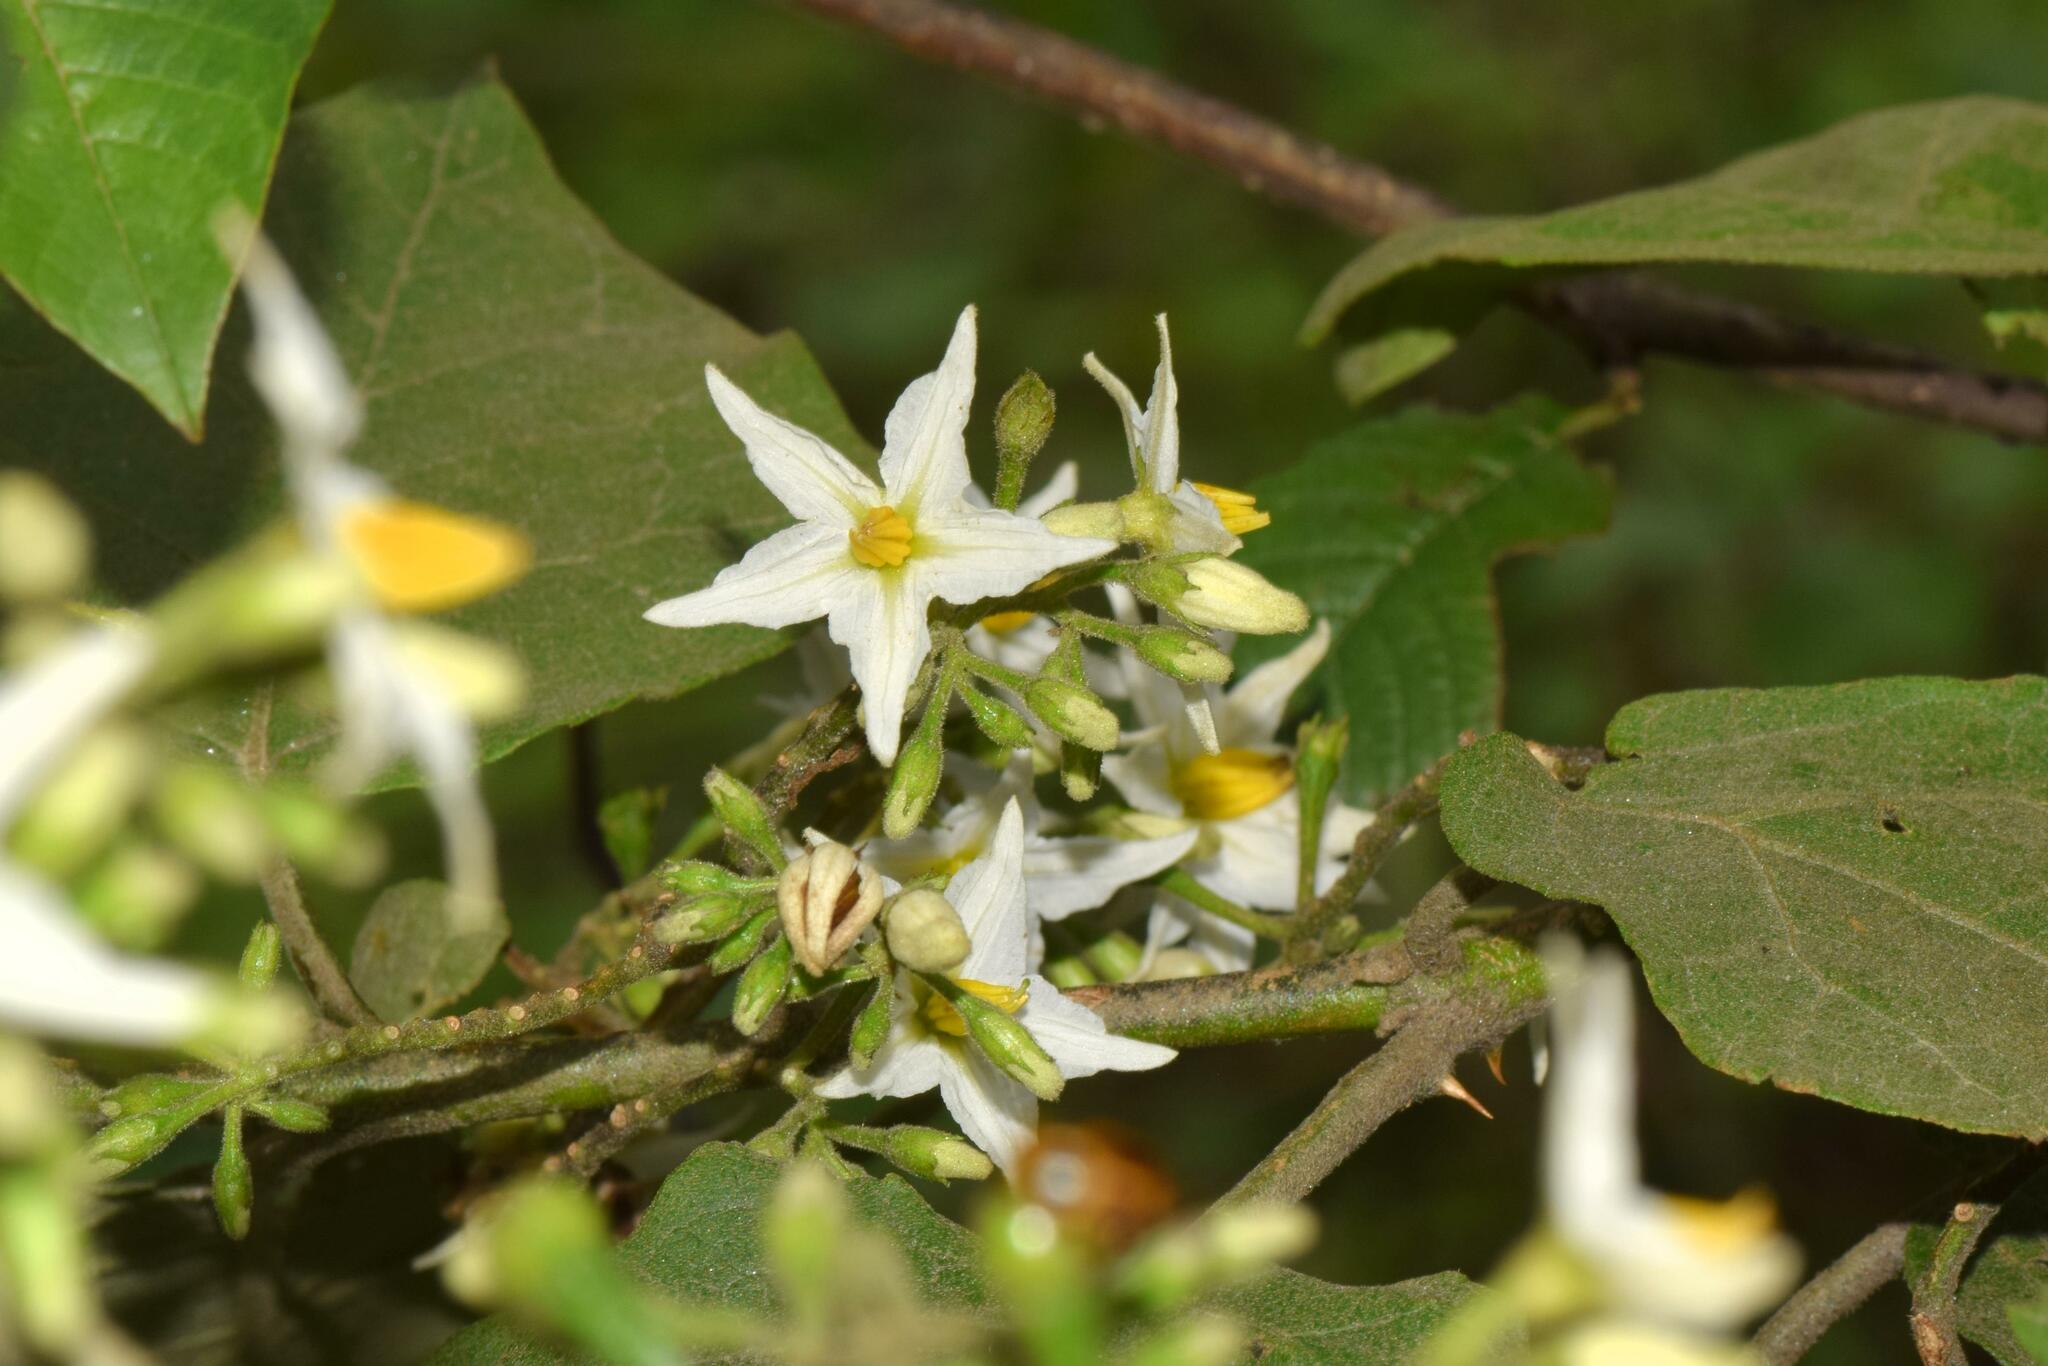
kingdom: Plantae
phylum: Tracheophyta
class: Magnoliopsida
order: Solanales
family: Solanaceae
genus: Solanum
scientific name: Solanum torvum
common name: Turkey berry
